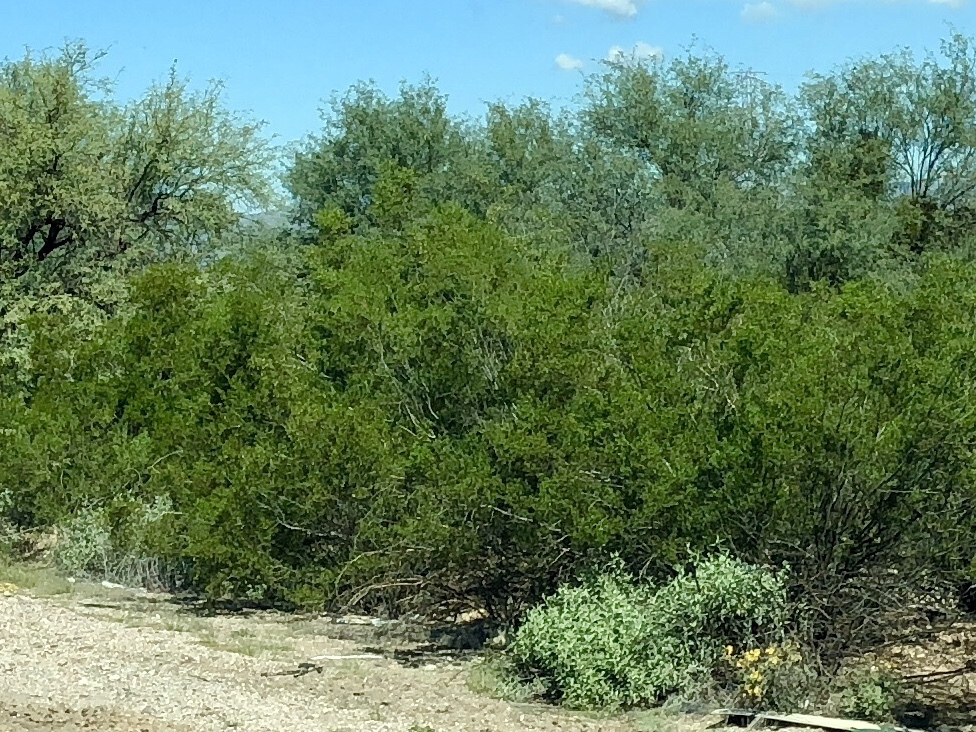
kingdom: Plantae
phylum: Tracheophyta
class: Magnoliopsida
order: Zygophyllales
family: Zygophyllaceae
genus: Larrea
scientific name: Larrea tridentata
